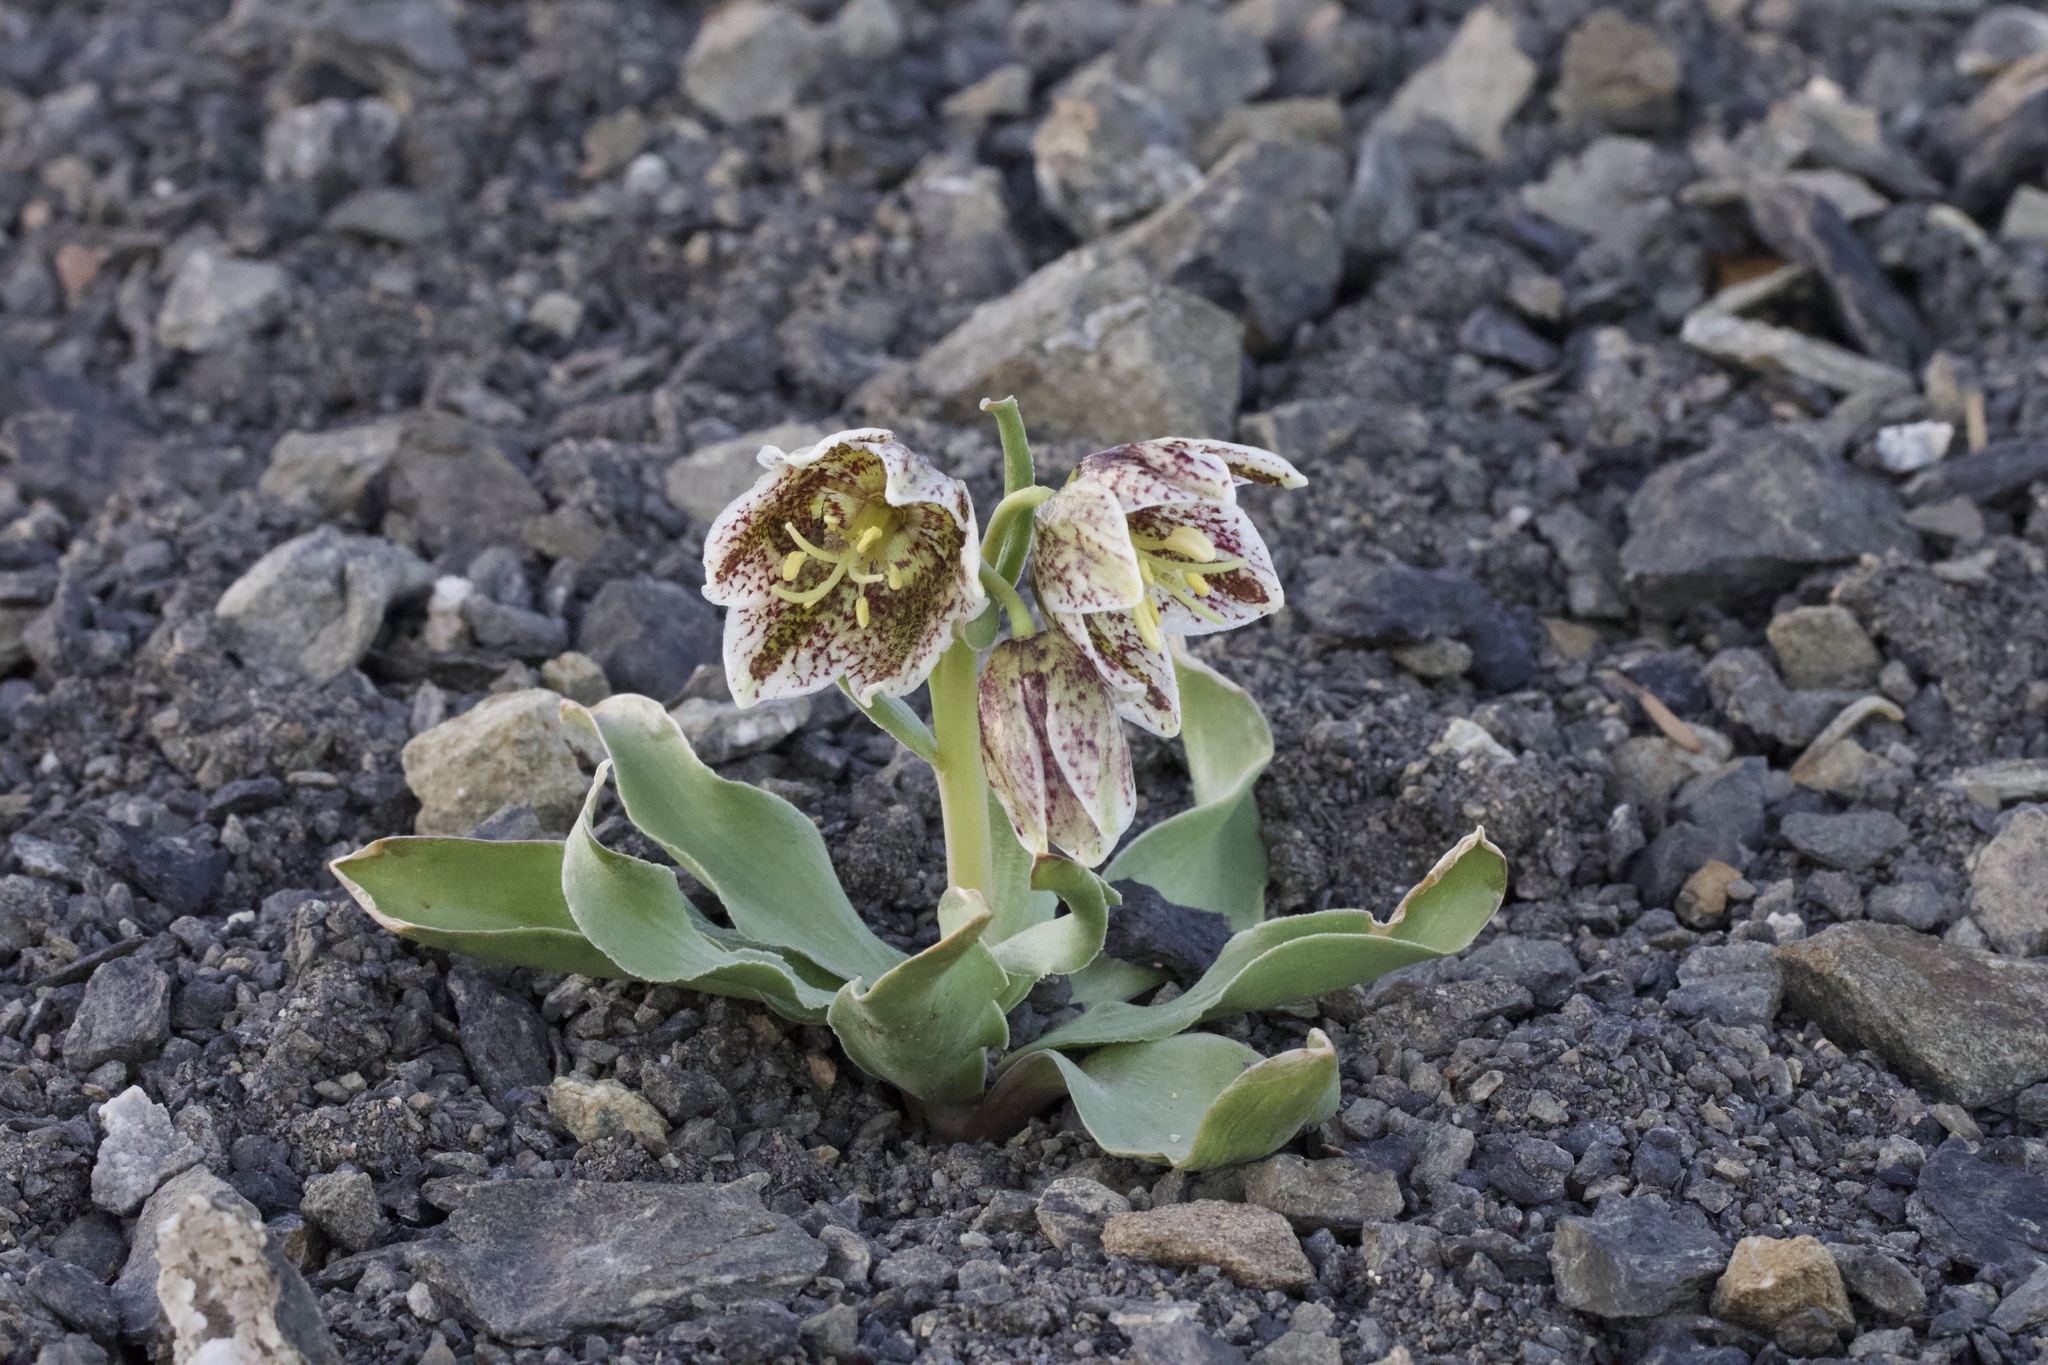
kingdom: Plantae
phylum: Tracheophyta
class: Liliopsida
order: Liliales
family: Liliaceae
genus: Fritillaria
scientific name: Fritillaria purdyi
